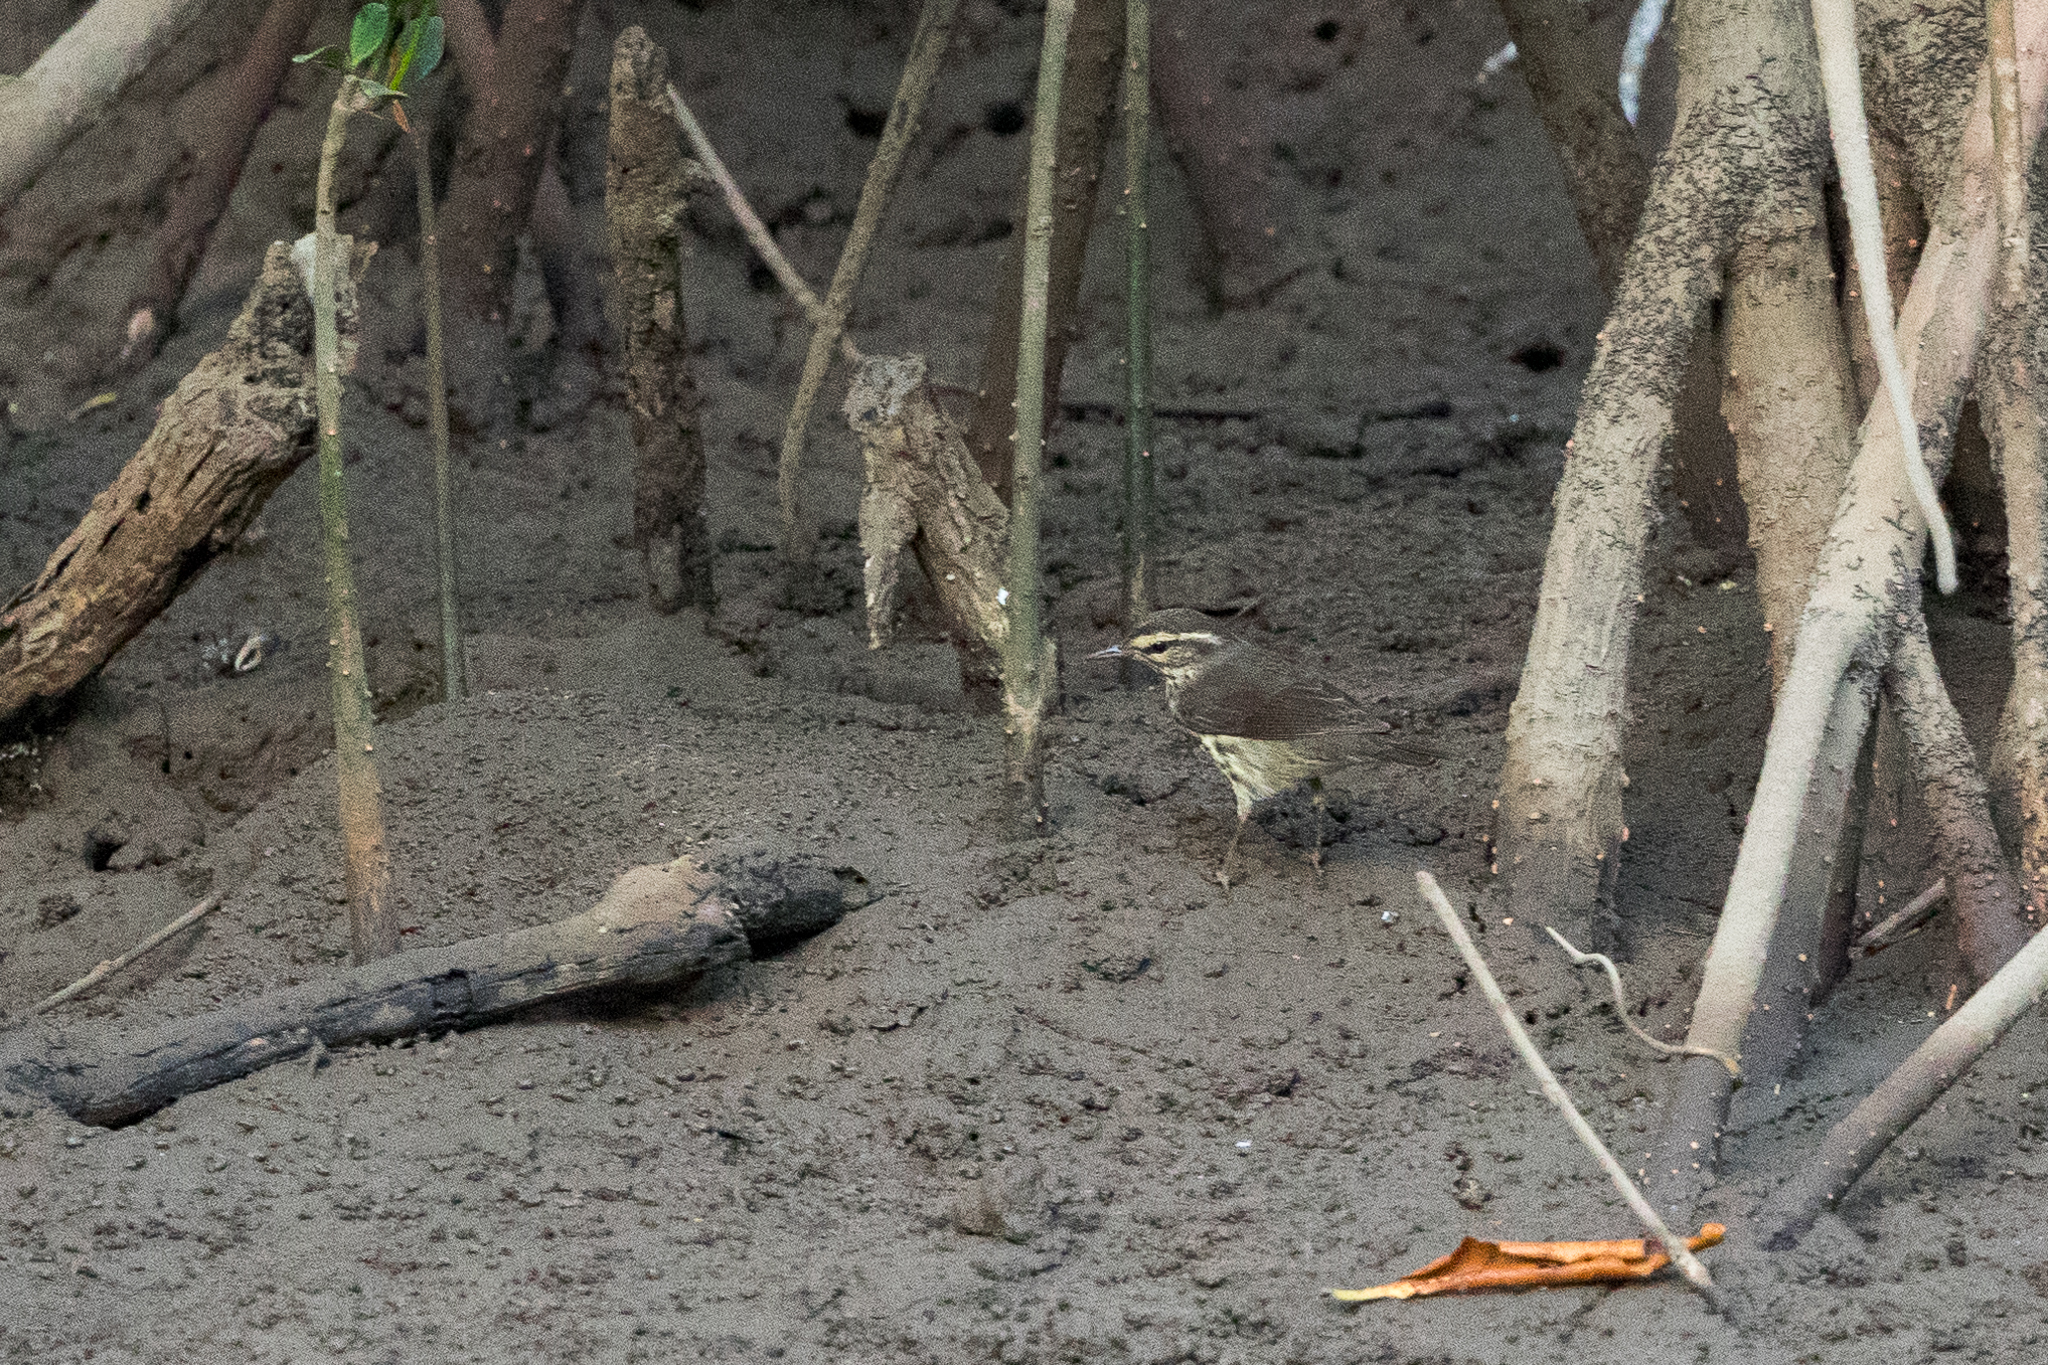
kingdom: Animalia
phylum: Chordata
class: Aves
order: Passeriformes
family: Parulidae
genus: Parkesia
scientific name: Parkesia noveboracensis
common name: Northern waterthrush
